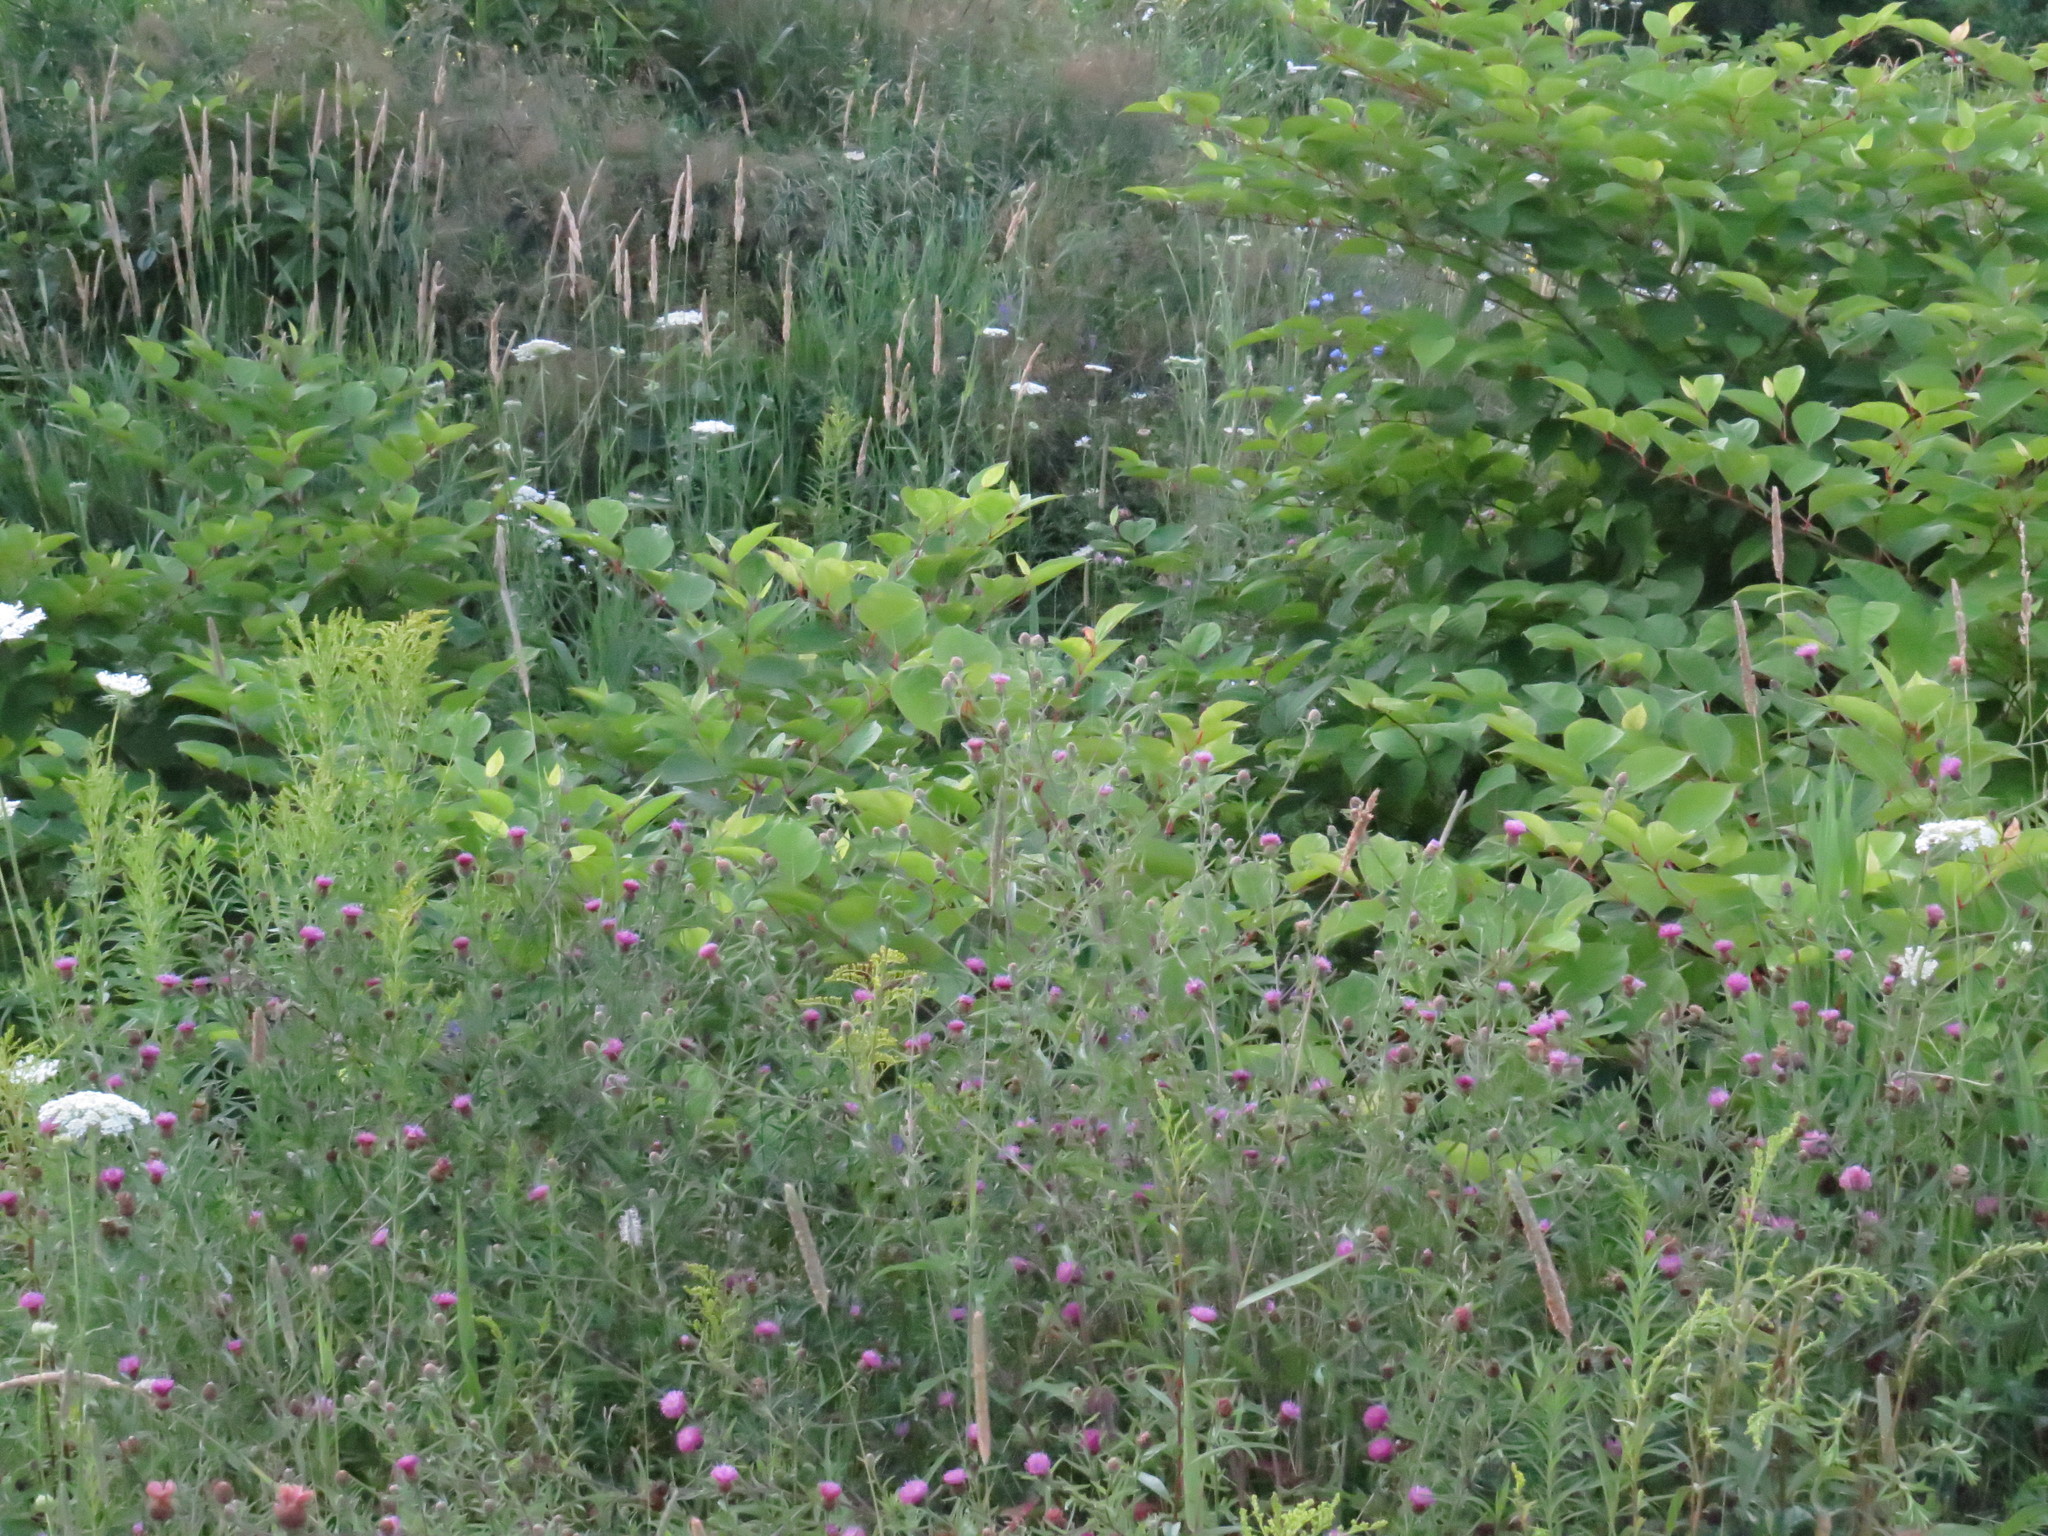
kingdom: Plantae
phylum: Tracheophyta
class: Magnoliopsida
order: Caryophyllales
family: Polygonaceae
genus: Reynoutria
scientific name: Reynoutria japonica
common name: Japanese knotweed
